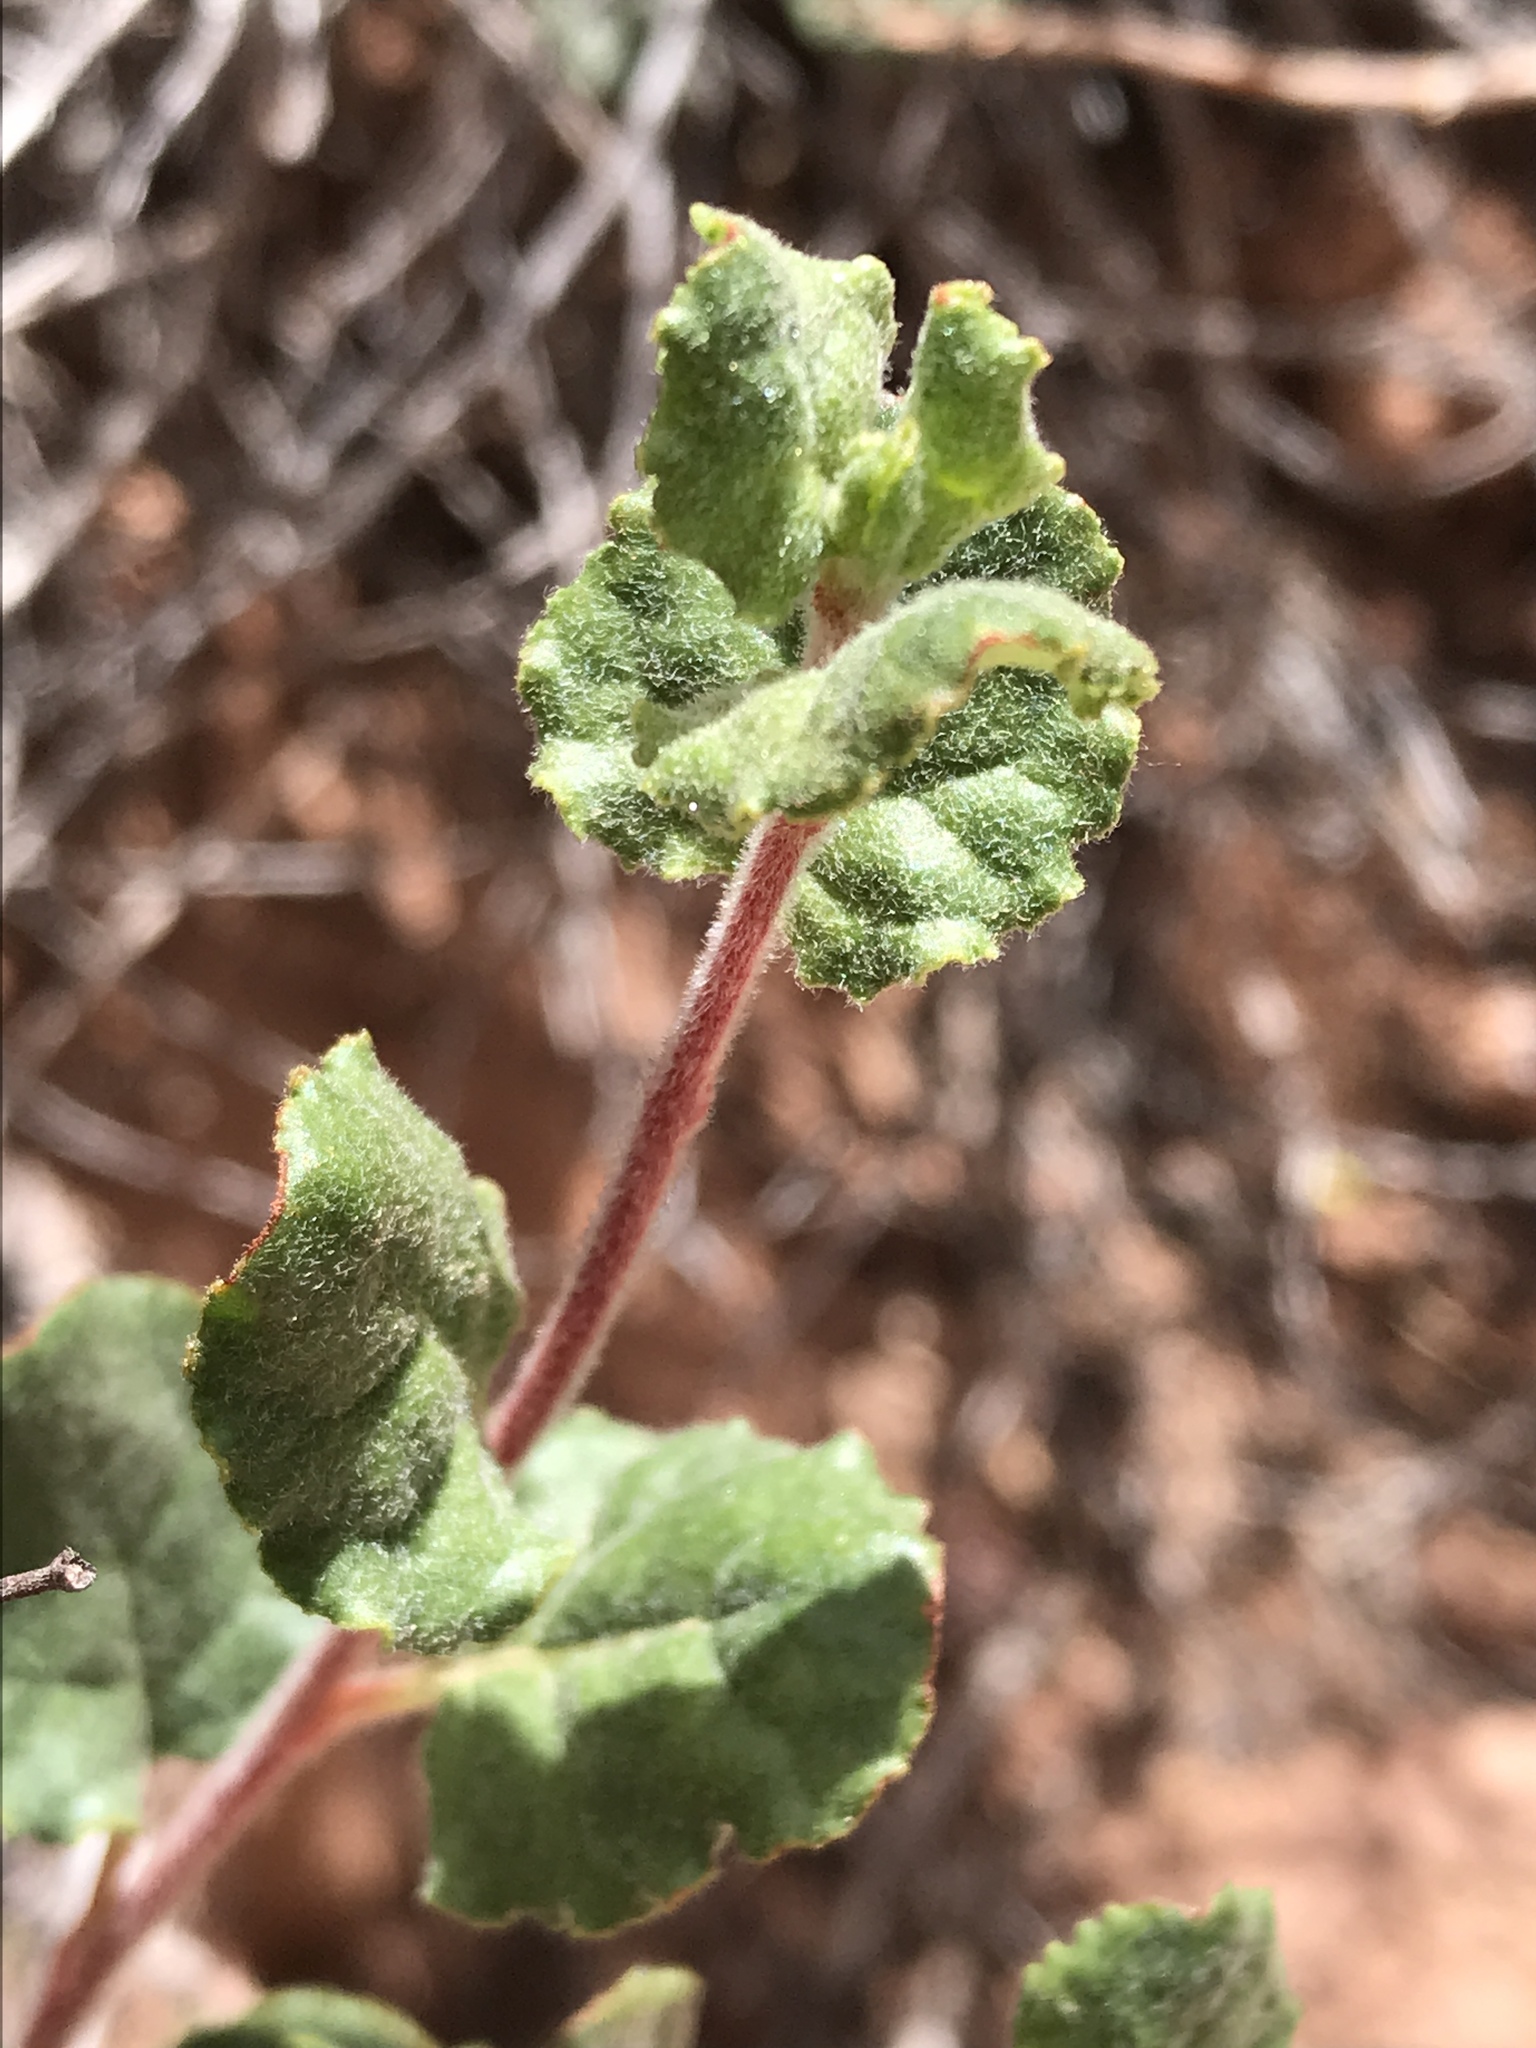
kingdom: Plantae
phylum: Tracheophyta
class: Magnoliopsida
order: Caryophyllales
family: Polygonaceae
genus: Eriogonum
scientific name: Eriogonum corymbosum
